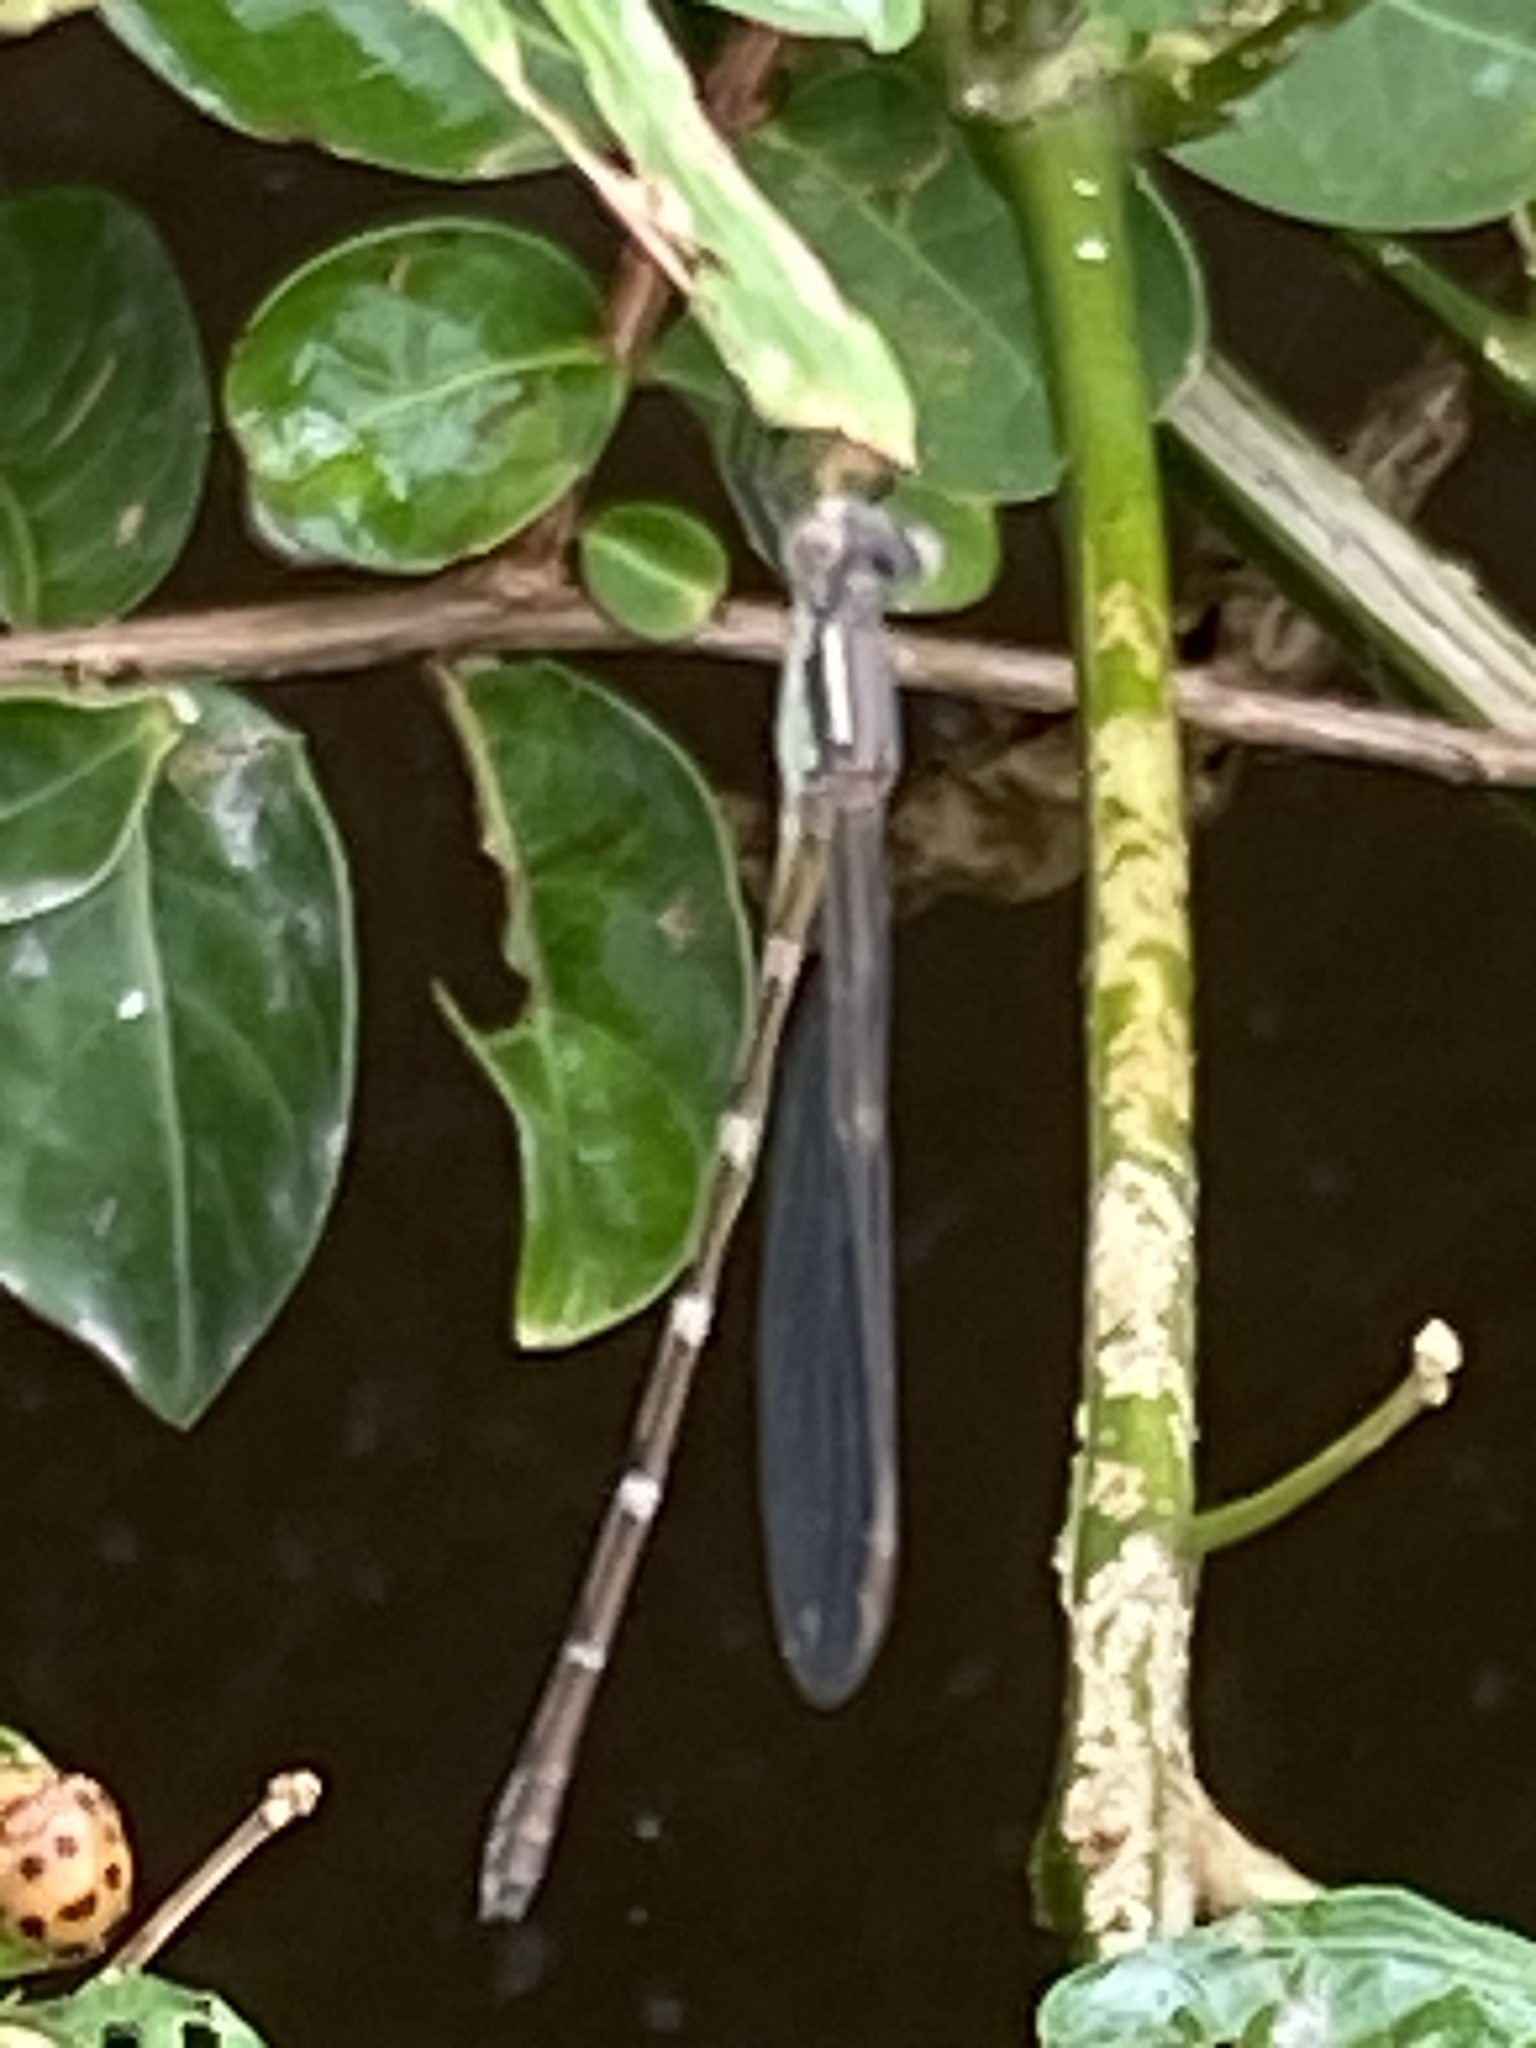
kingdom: Animalia
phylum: Arthropoda
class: Insecta
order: Odonata
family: Lestidae
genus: Austrolestes
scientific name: Austrolestes leda
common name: Wandering ringtail
